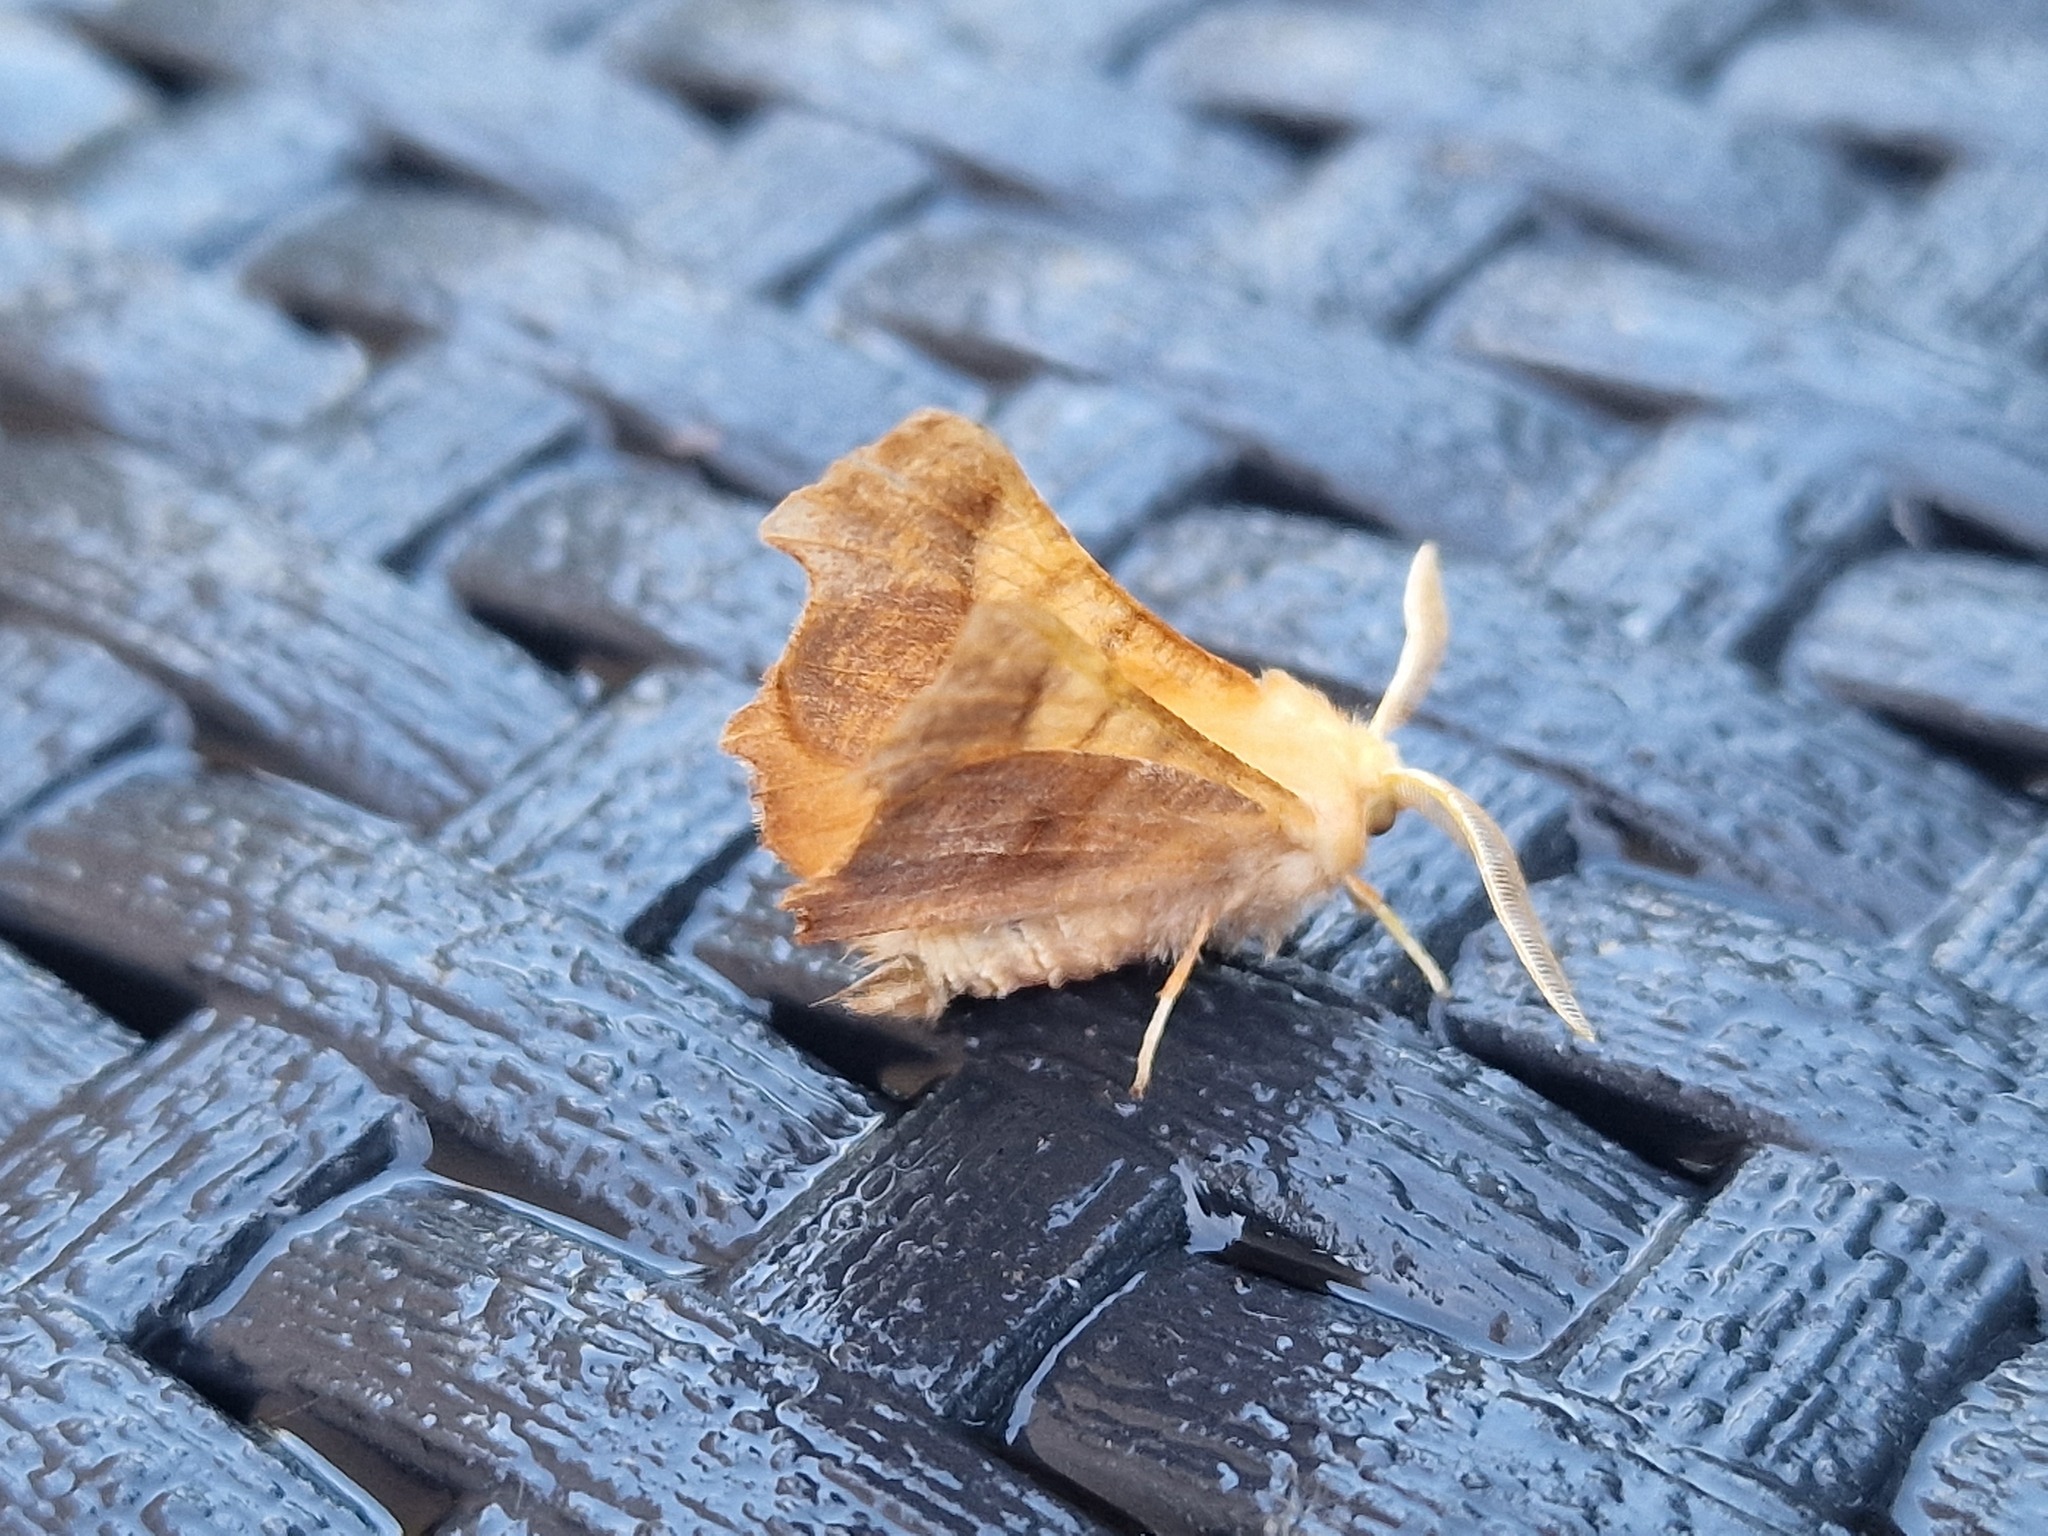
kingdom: Animalia
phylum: Arthropoda
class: Insecta
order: Lepidoptera
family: Geometridae
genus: Ennomos
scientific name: Ennomos fuscantaria
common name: Dusky thorn
